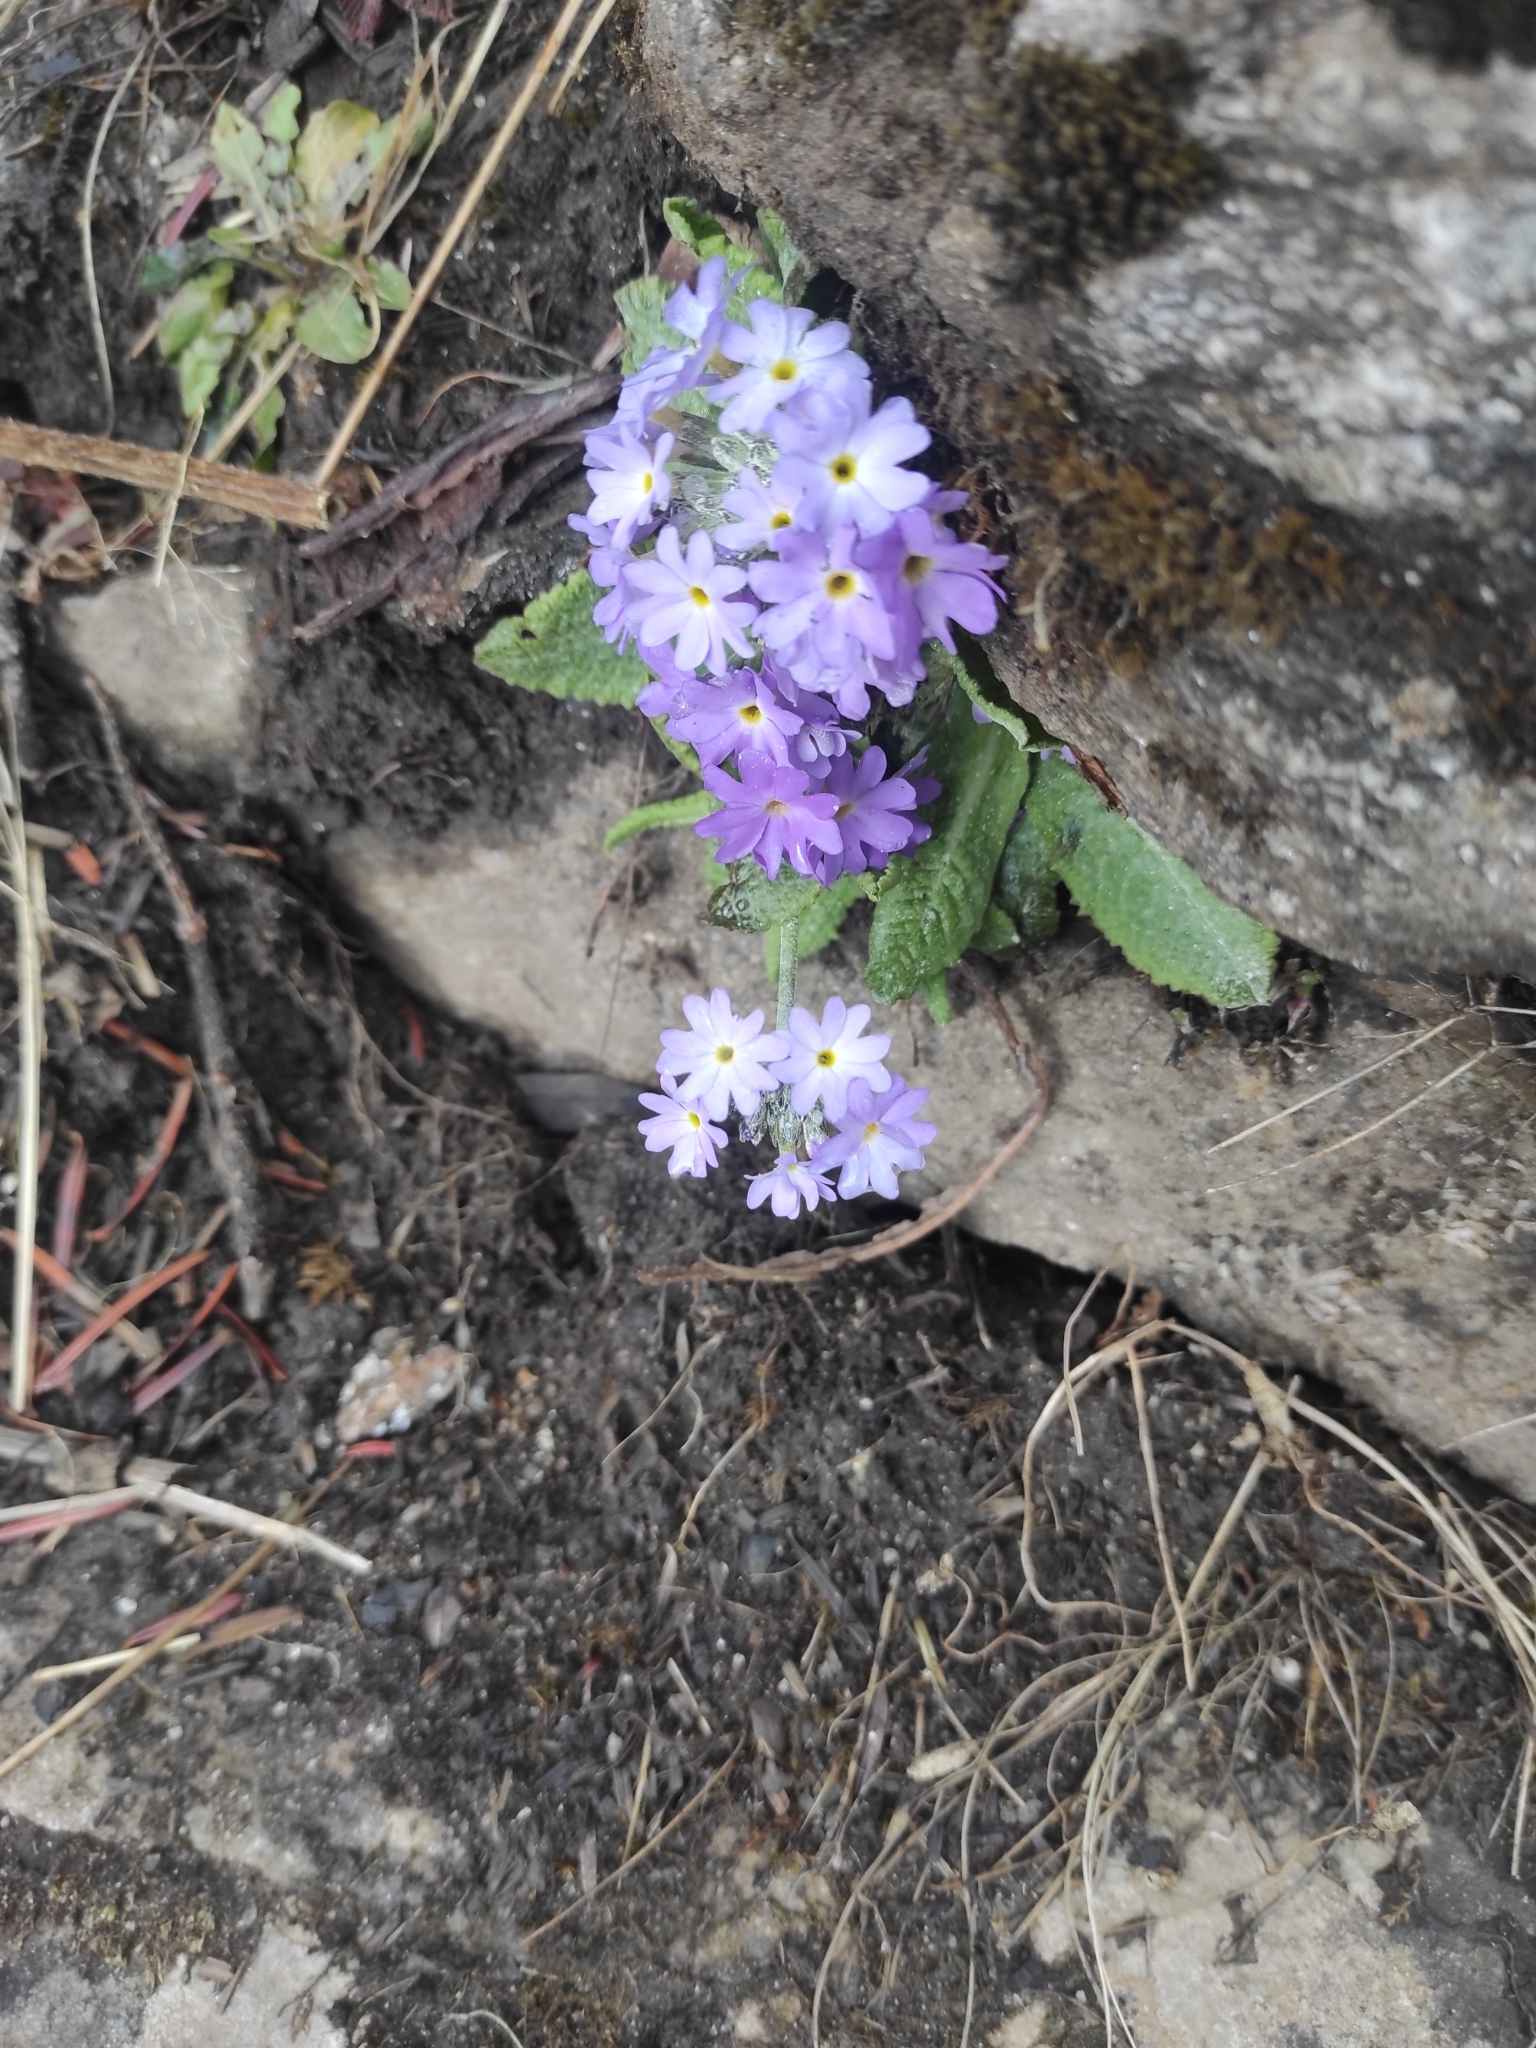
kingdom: Plantae
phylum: Tracheophyta
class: Magnoliopsida
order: Ericales
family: Primulaceae
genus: Primula
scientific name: Primula denticulata
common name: Drumstick primula
